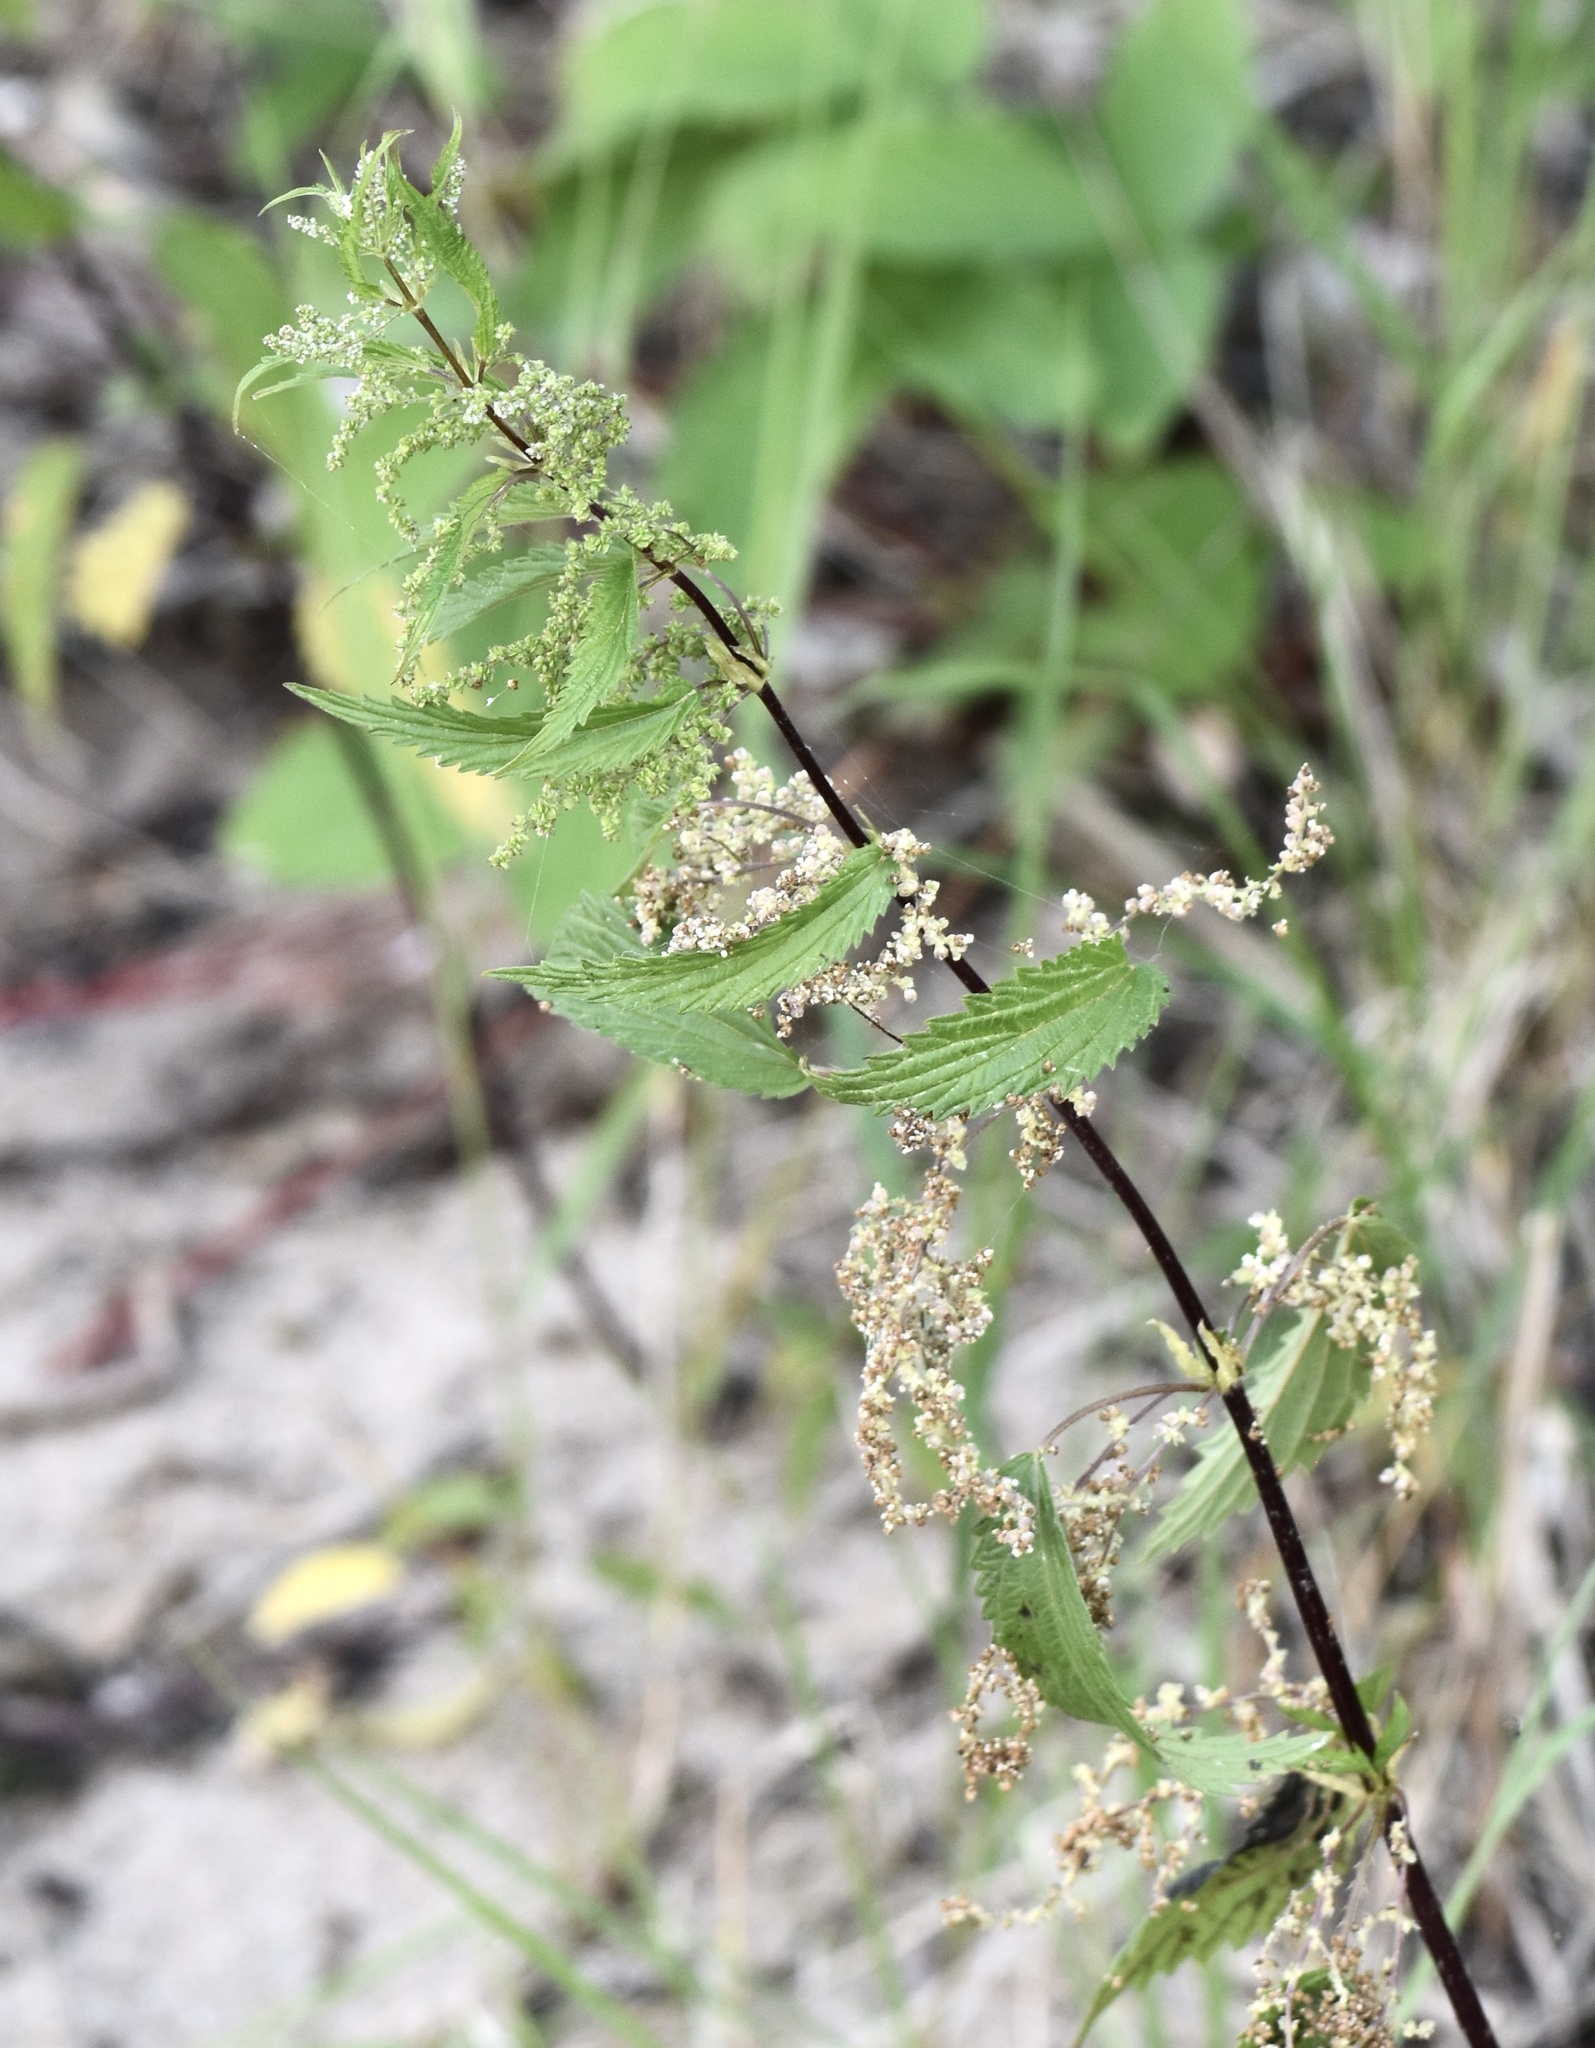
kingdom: Plantae
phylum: Tracheophyta
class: Magnoliopsida
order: Rosales
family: Urticaceae
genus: Urtica
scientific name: Urtica gracilis
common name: Slender stinging nettle
